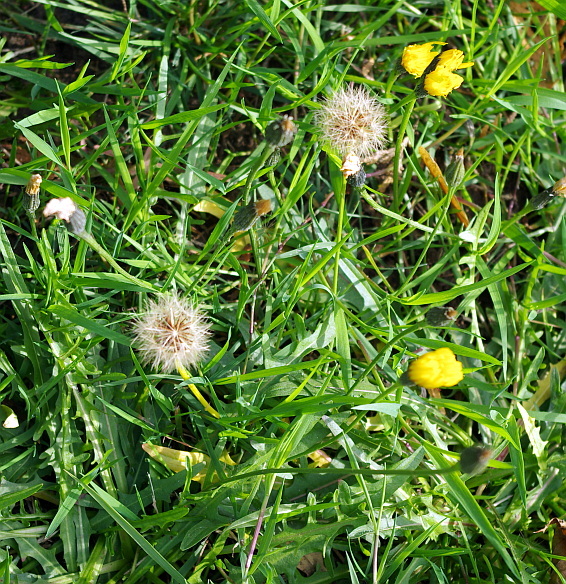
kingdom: Plantae
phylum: Tracheophyta
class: Magnoliopsida
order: Asterales
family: Asteraceae
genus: Scorzoneroides
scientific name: Scorzoneroides autumnalis
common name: Autumn hawkbit
